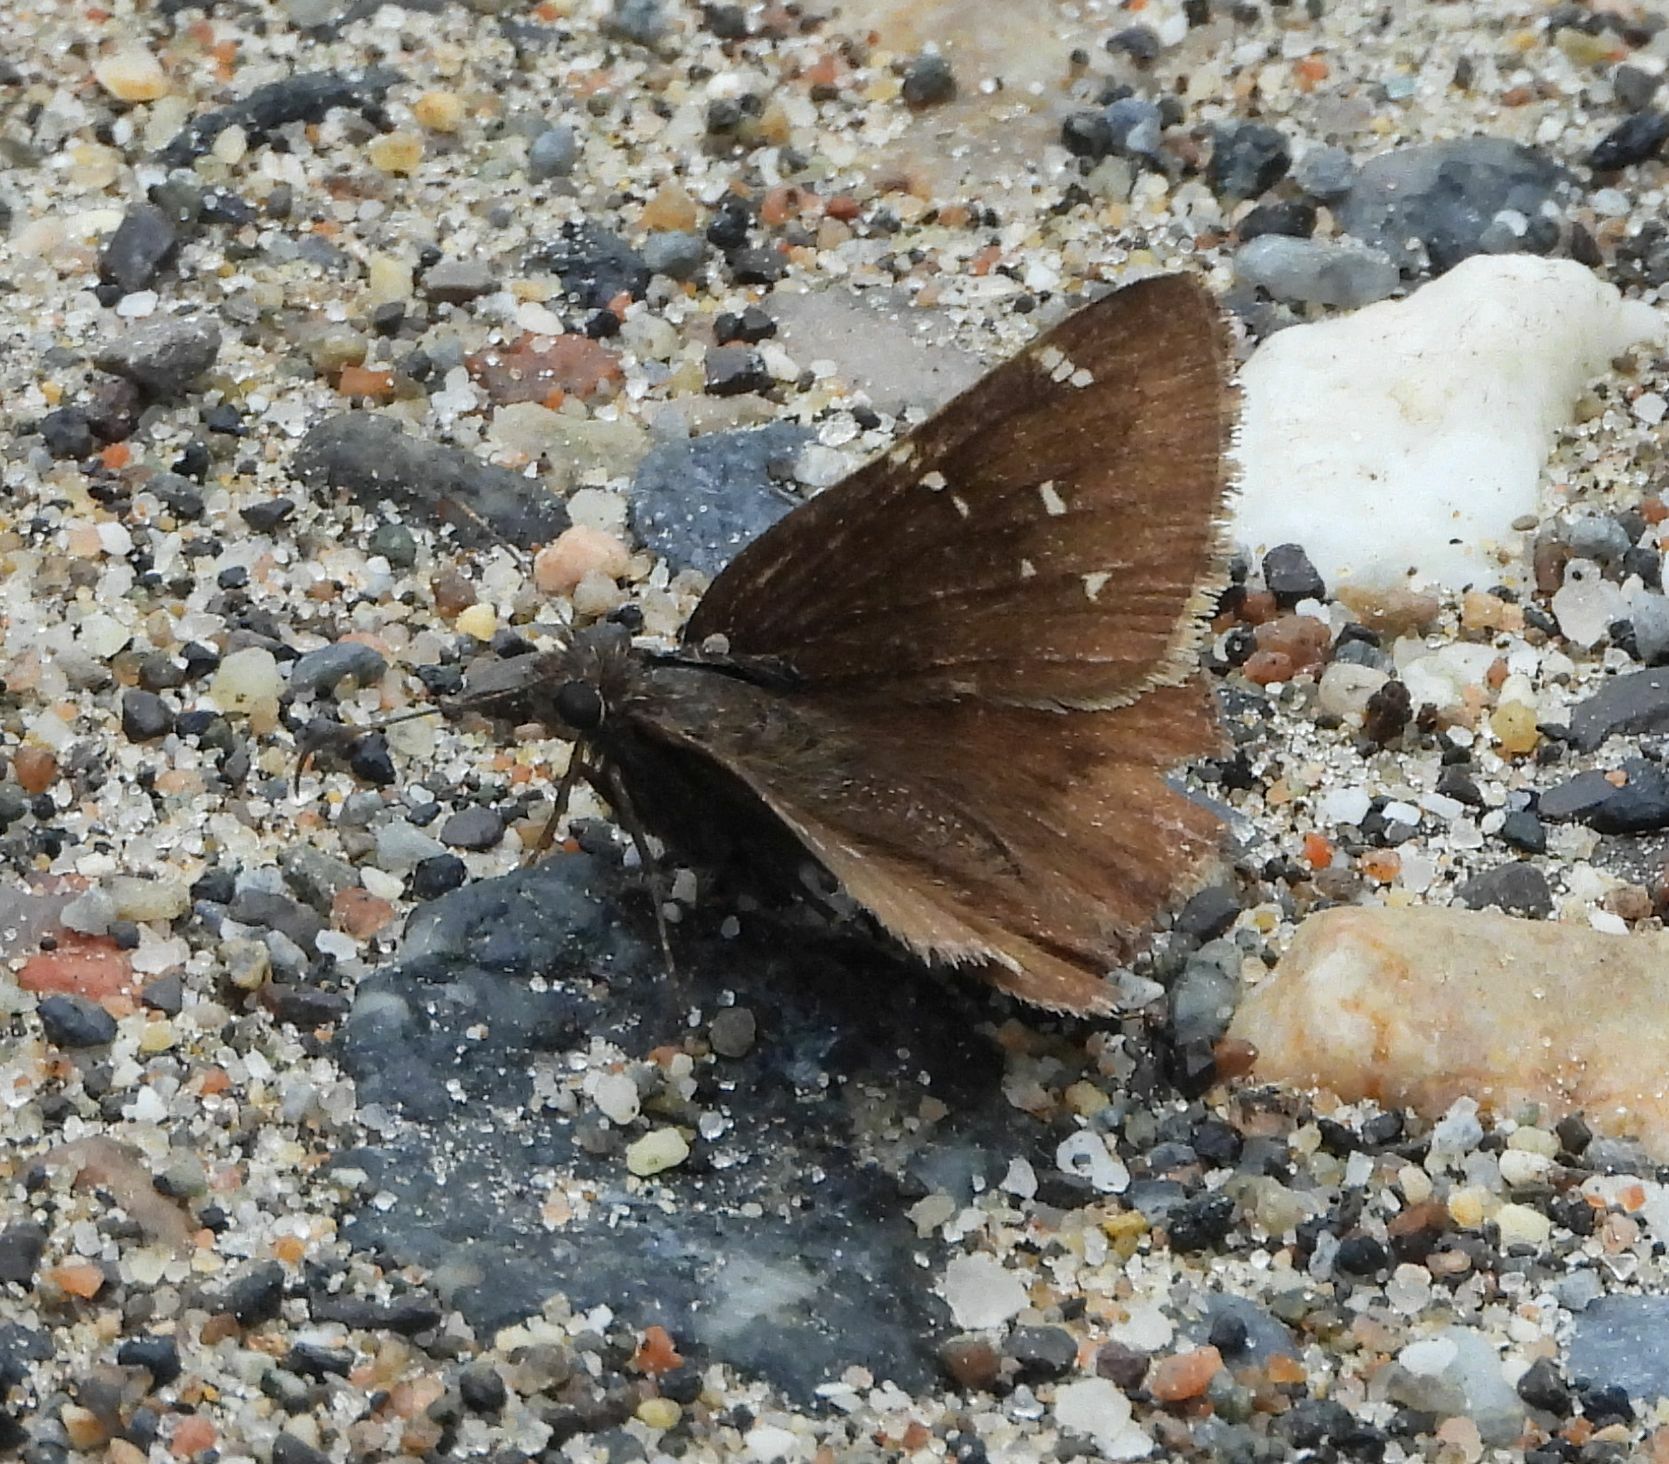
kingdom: Animalia
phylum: Arthropoda
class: Insecta
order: Lepidoptera
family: Hesperiidae
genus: Thorybes
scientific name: Thorybes pylades
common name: Northern cloudywing
